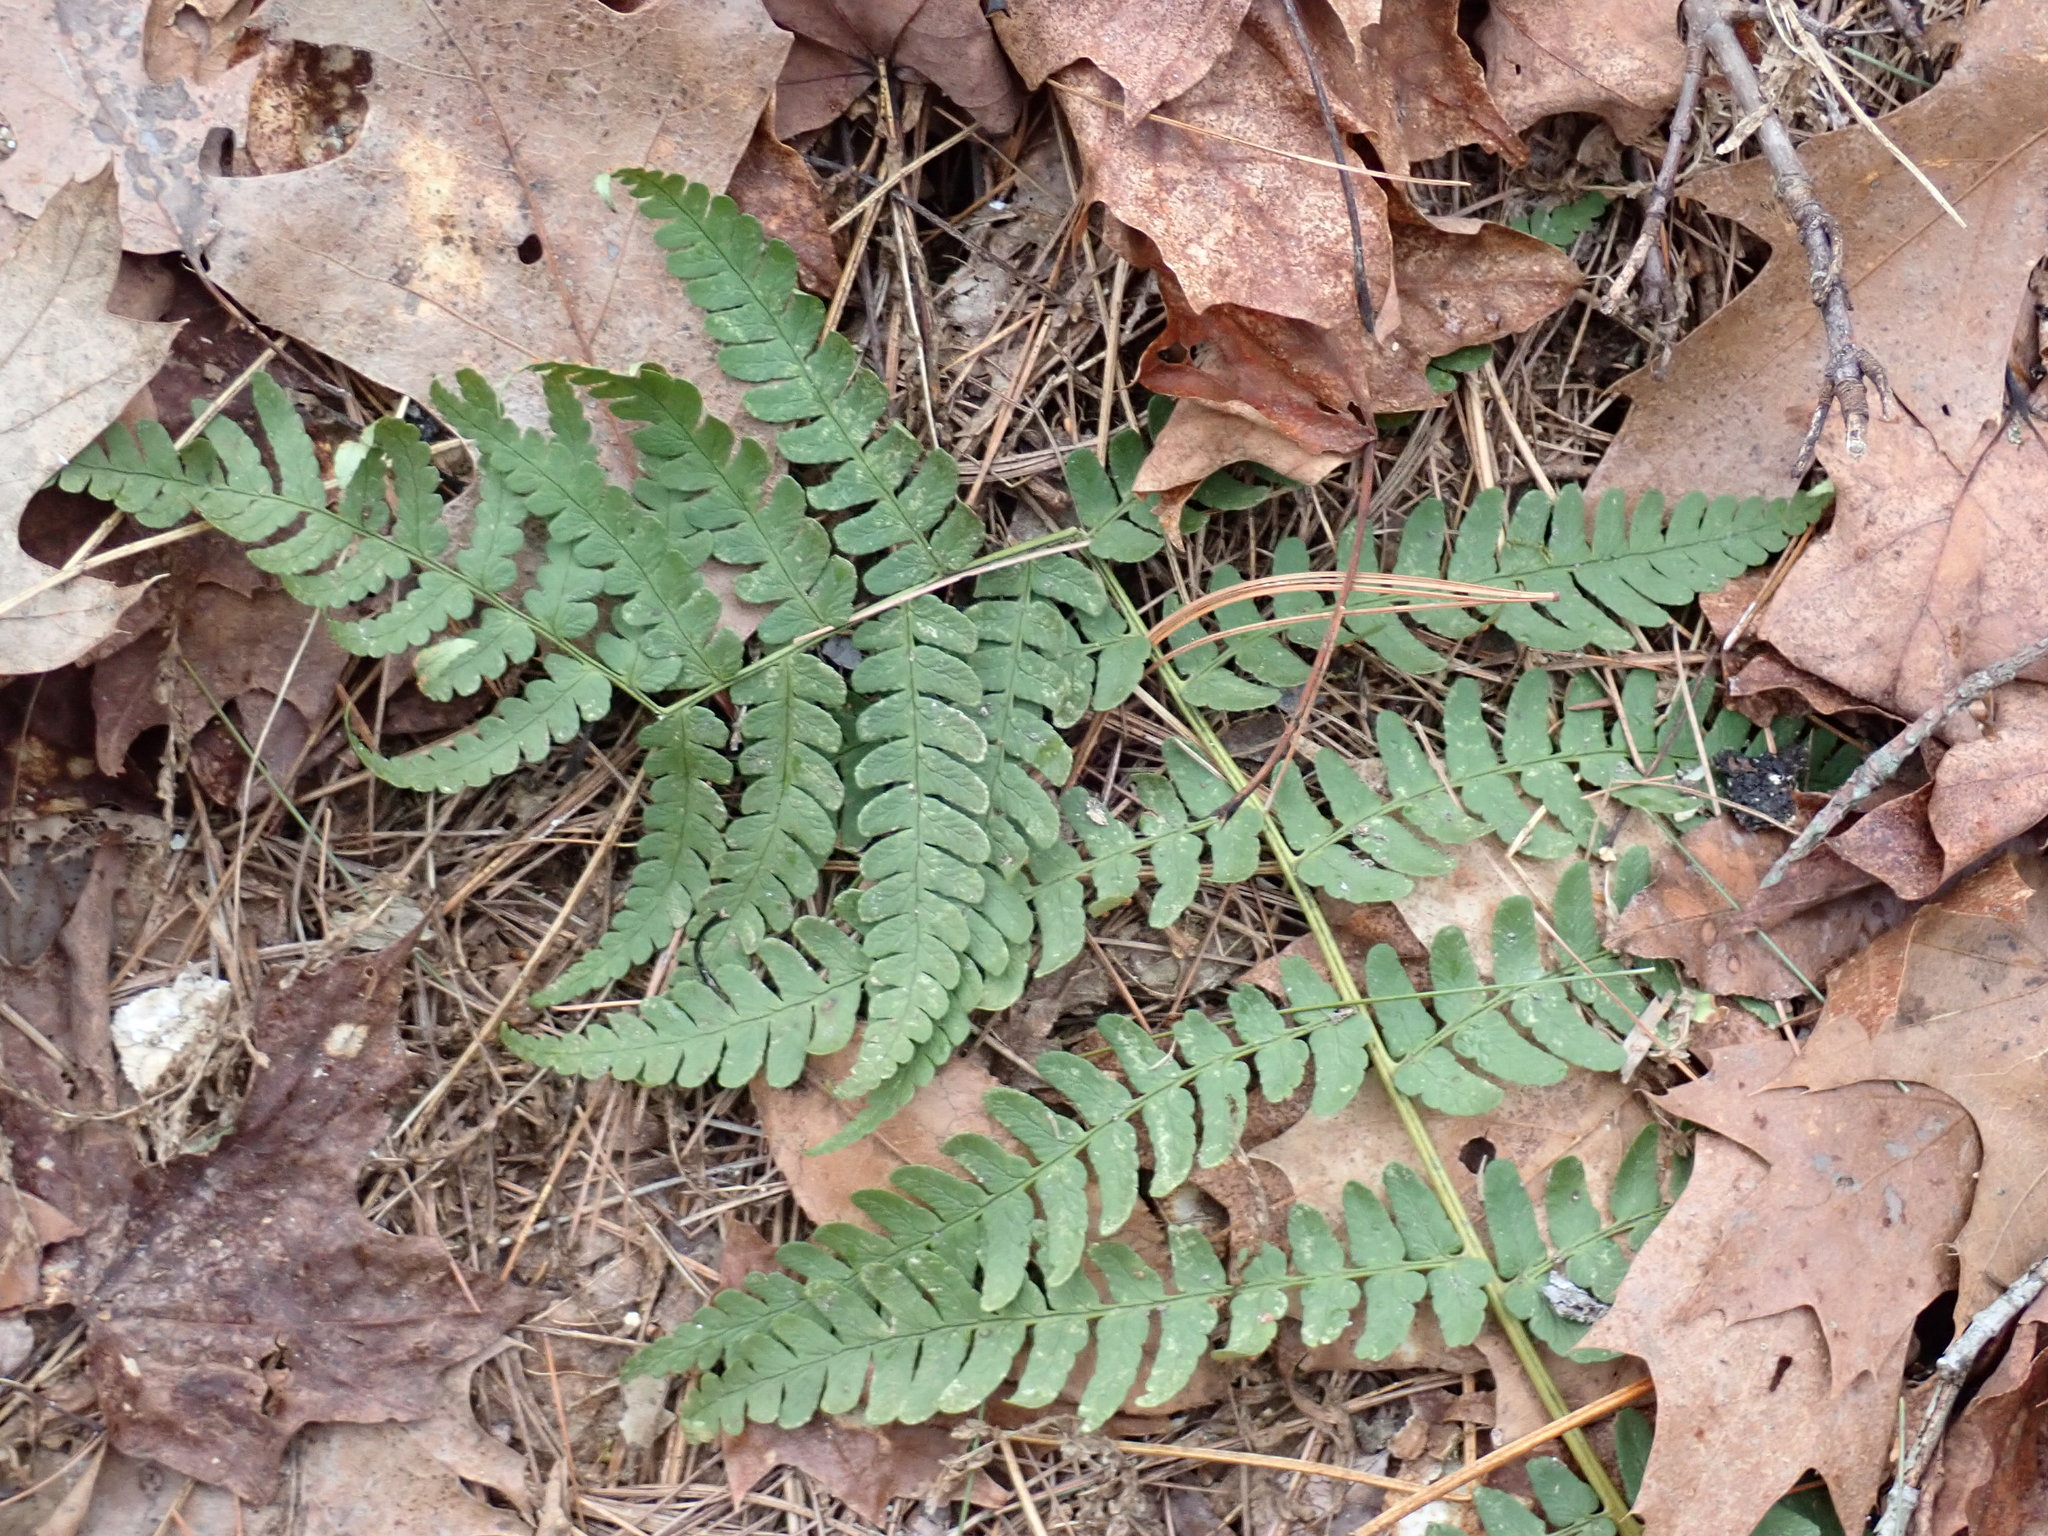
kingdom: Plantae
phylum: Tracheophyta
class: Polypodiopsida
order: Polypodiales
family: Dryopteridaceae
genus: Dryopteris
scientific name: Dryopteris marginalis
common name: Marginal wood fern
